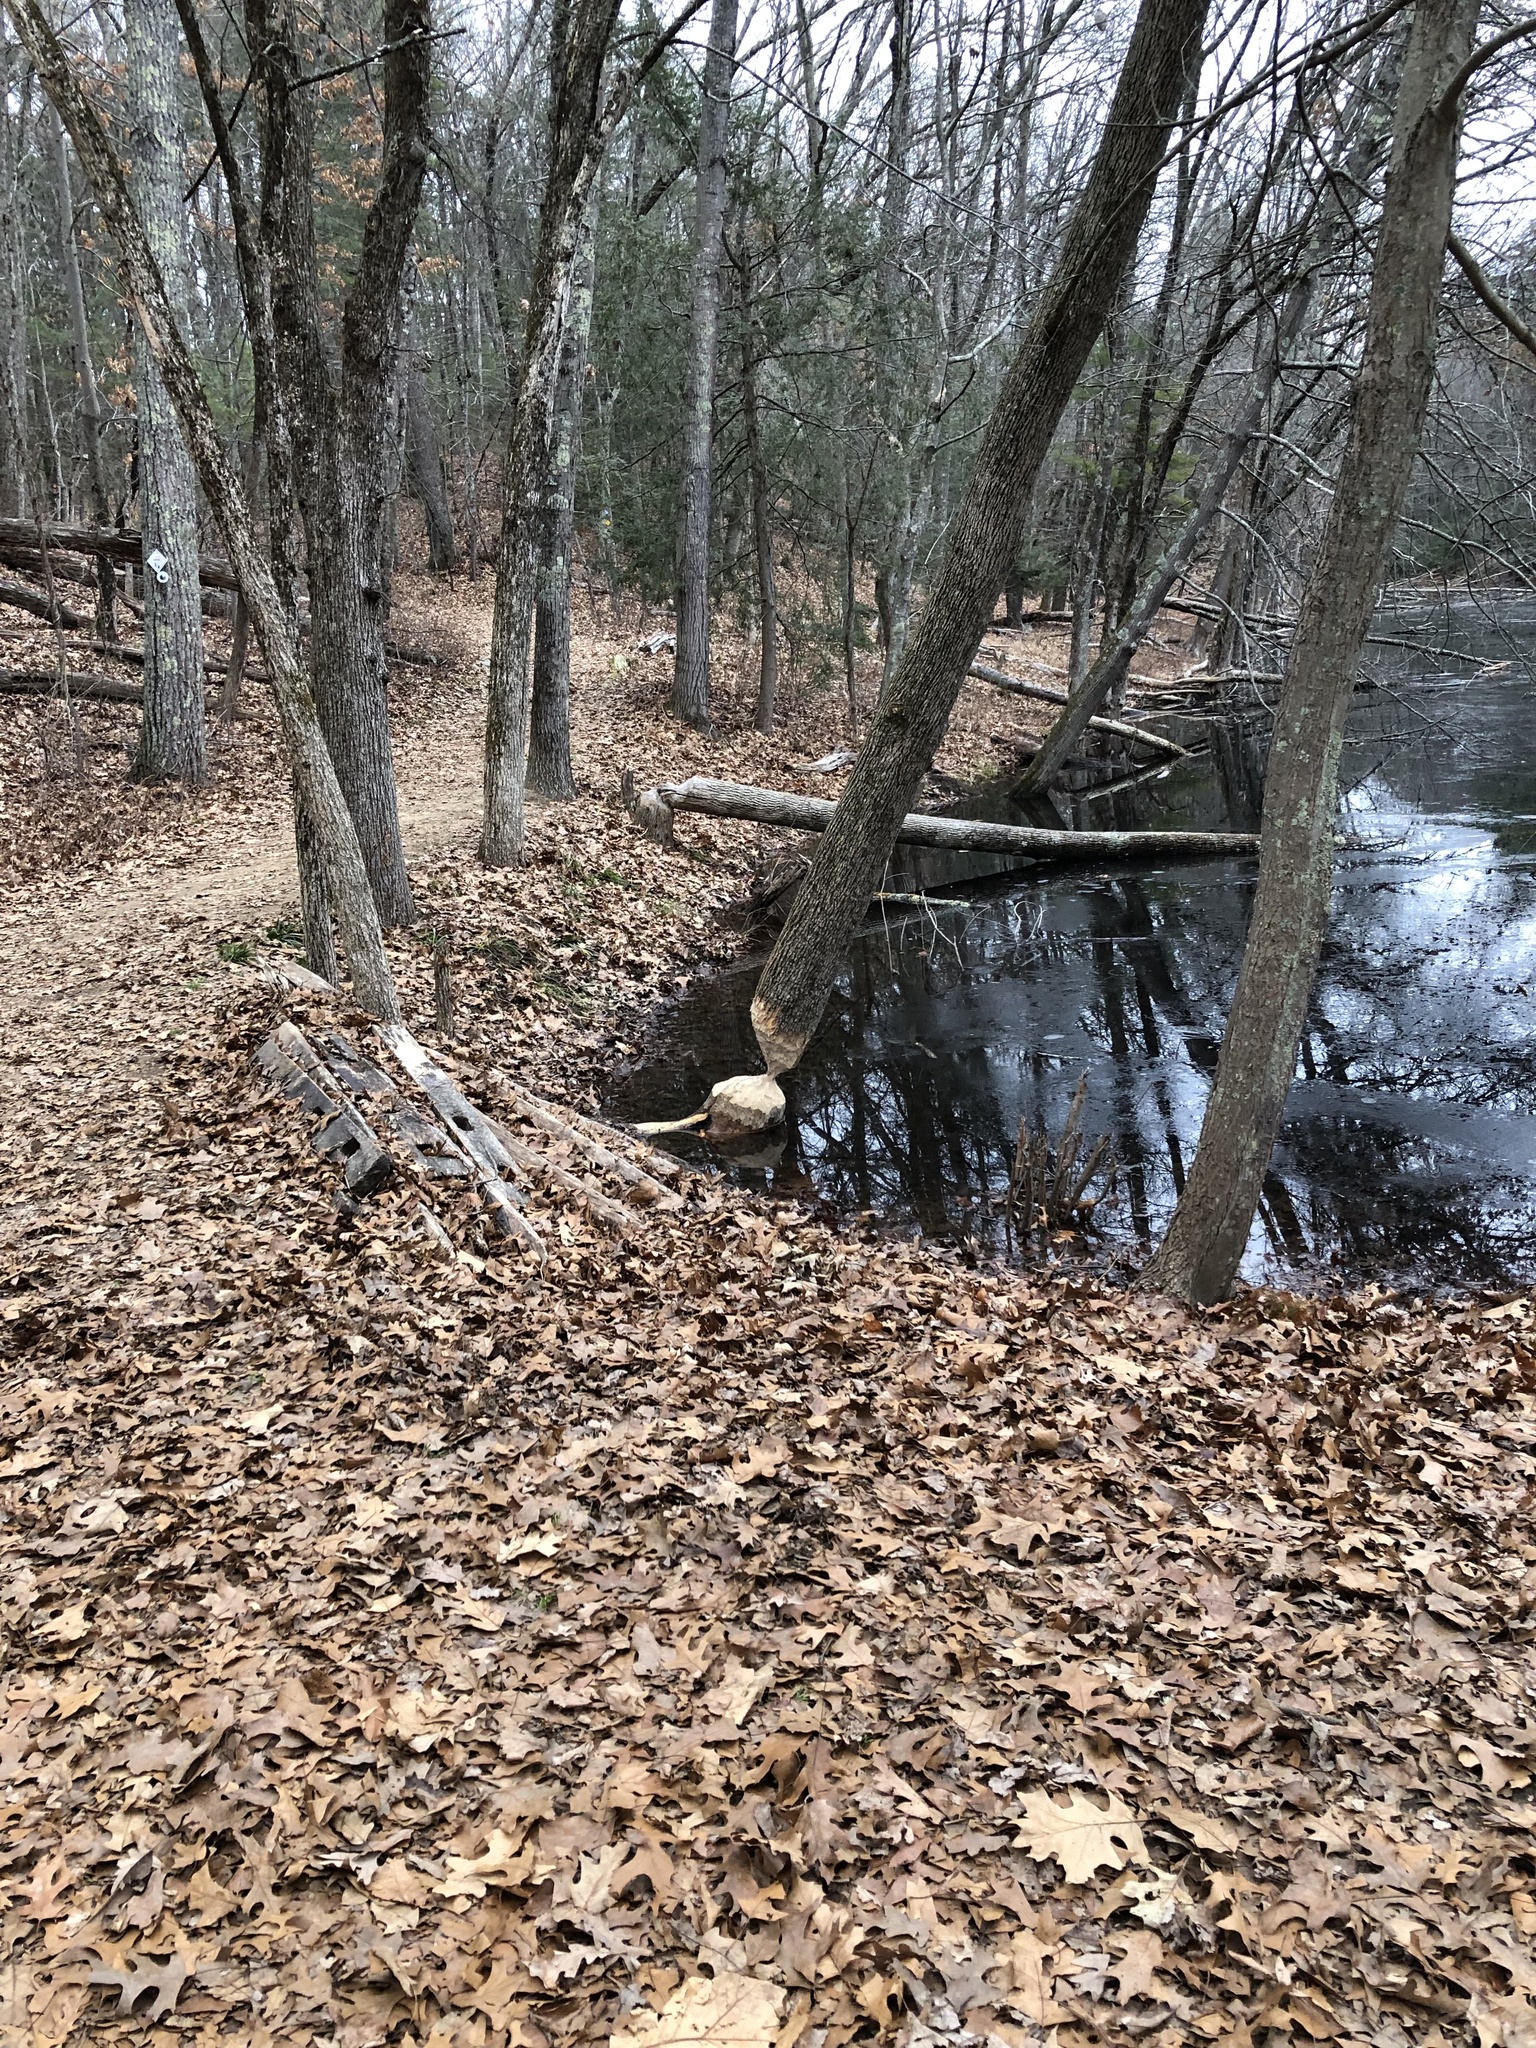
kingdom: Animalia
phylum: Chordata
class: Mammalia
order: Rodentia
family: Castoridae
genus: Castor
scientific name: Castor canadensis
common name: American beaver
